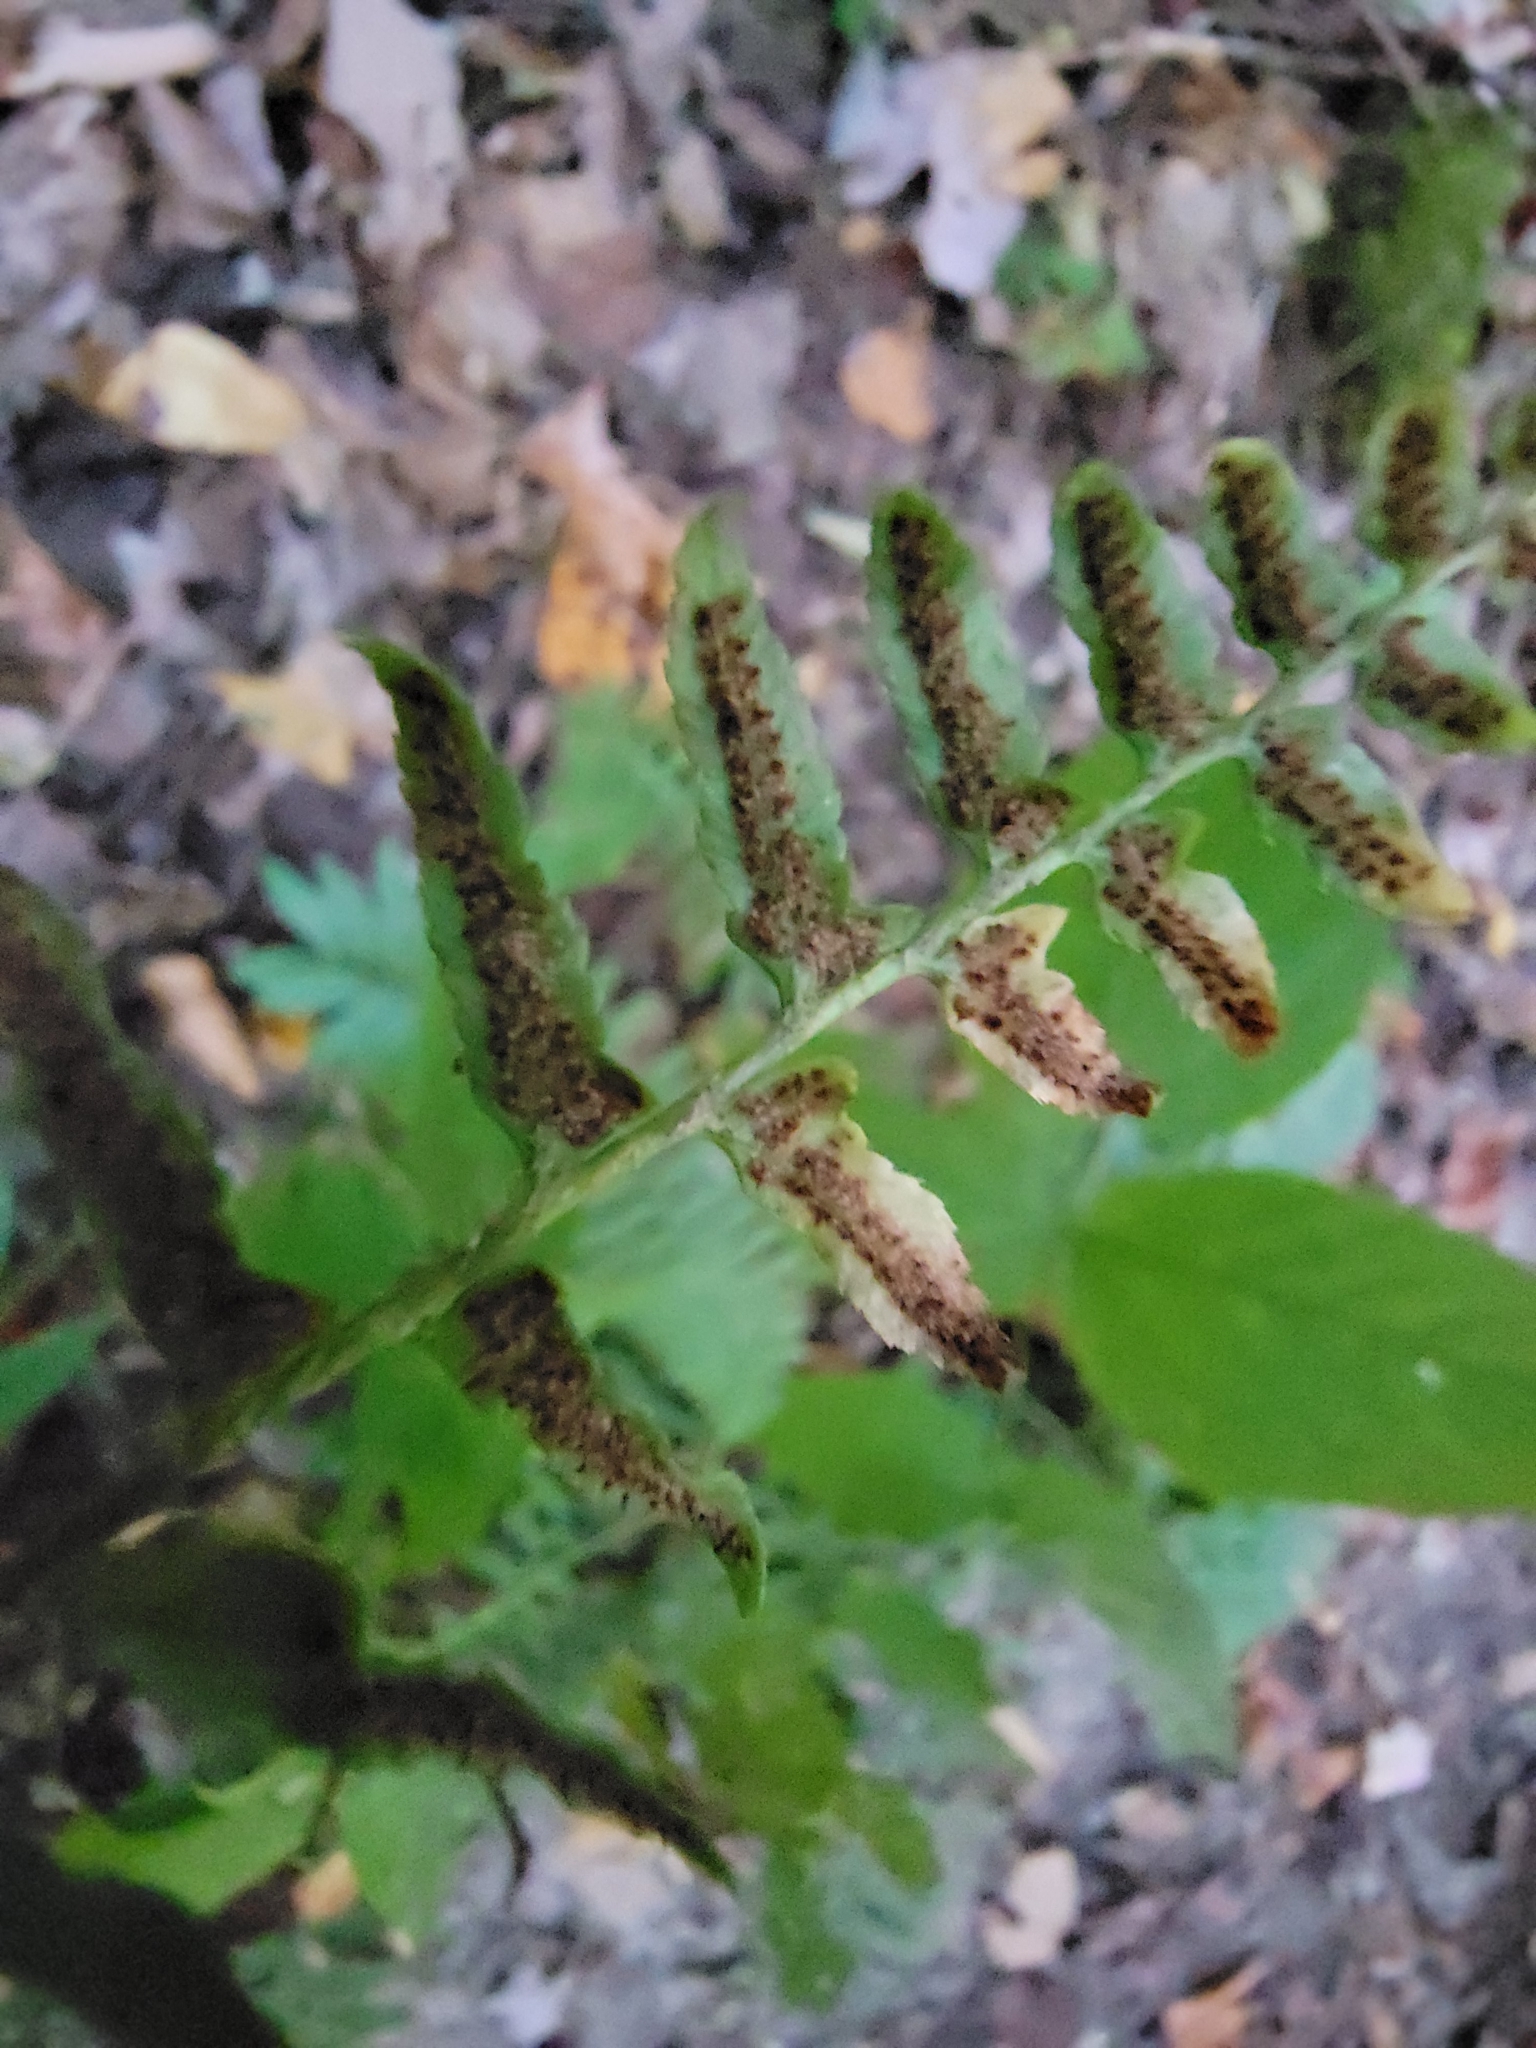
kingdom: Plantae
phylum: Tracheophyta
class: Polypodiopsida
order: Polypodiales
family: Dryopteridaceae
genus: Polystichum
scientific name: Polystichum acrostichoides
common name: Christmas fern
